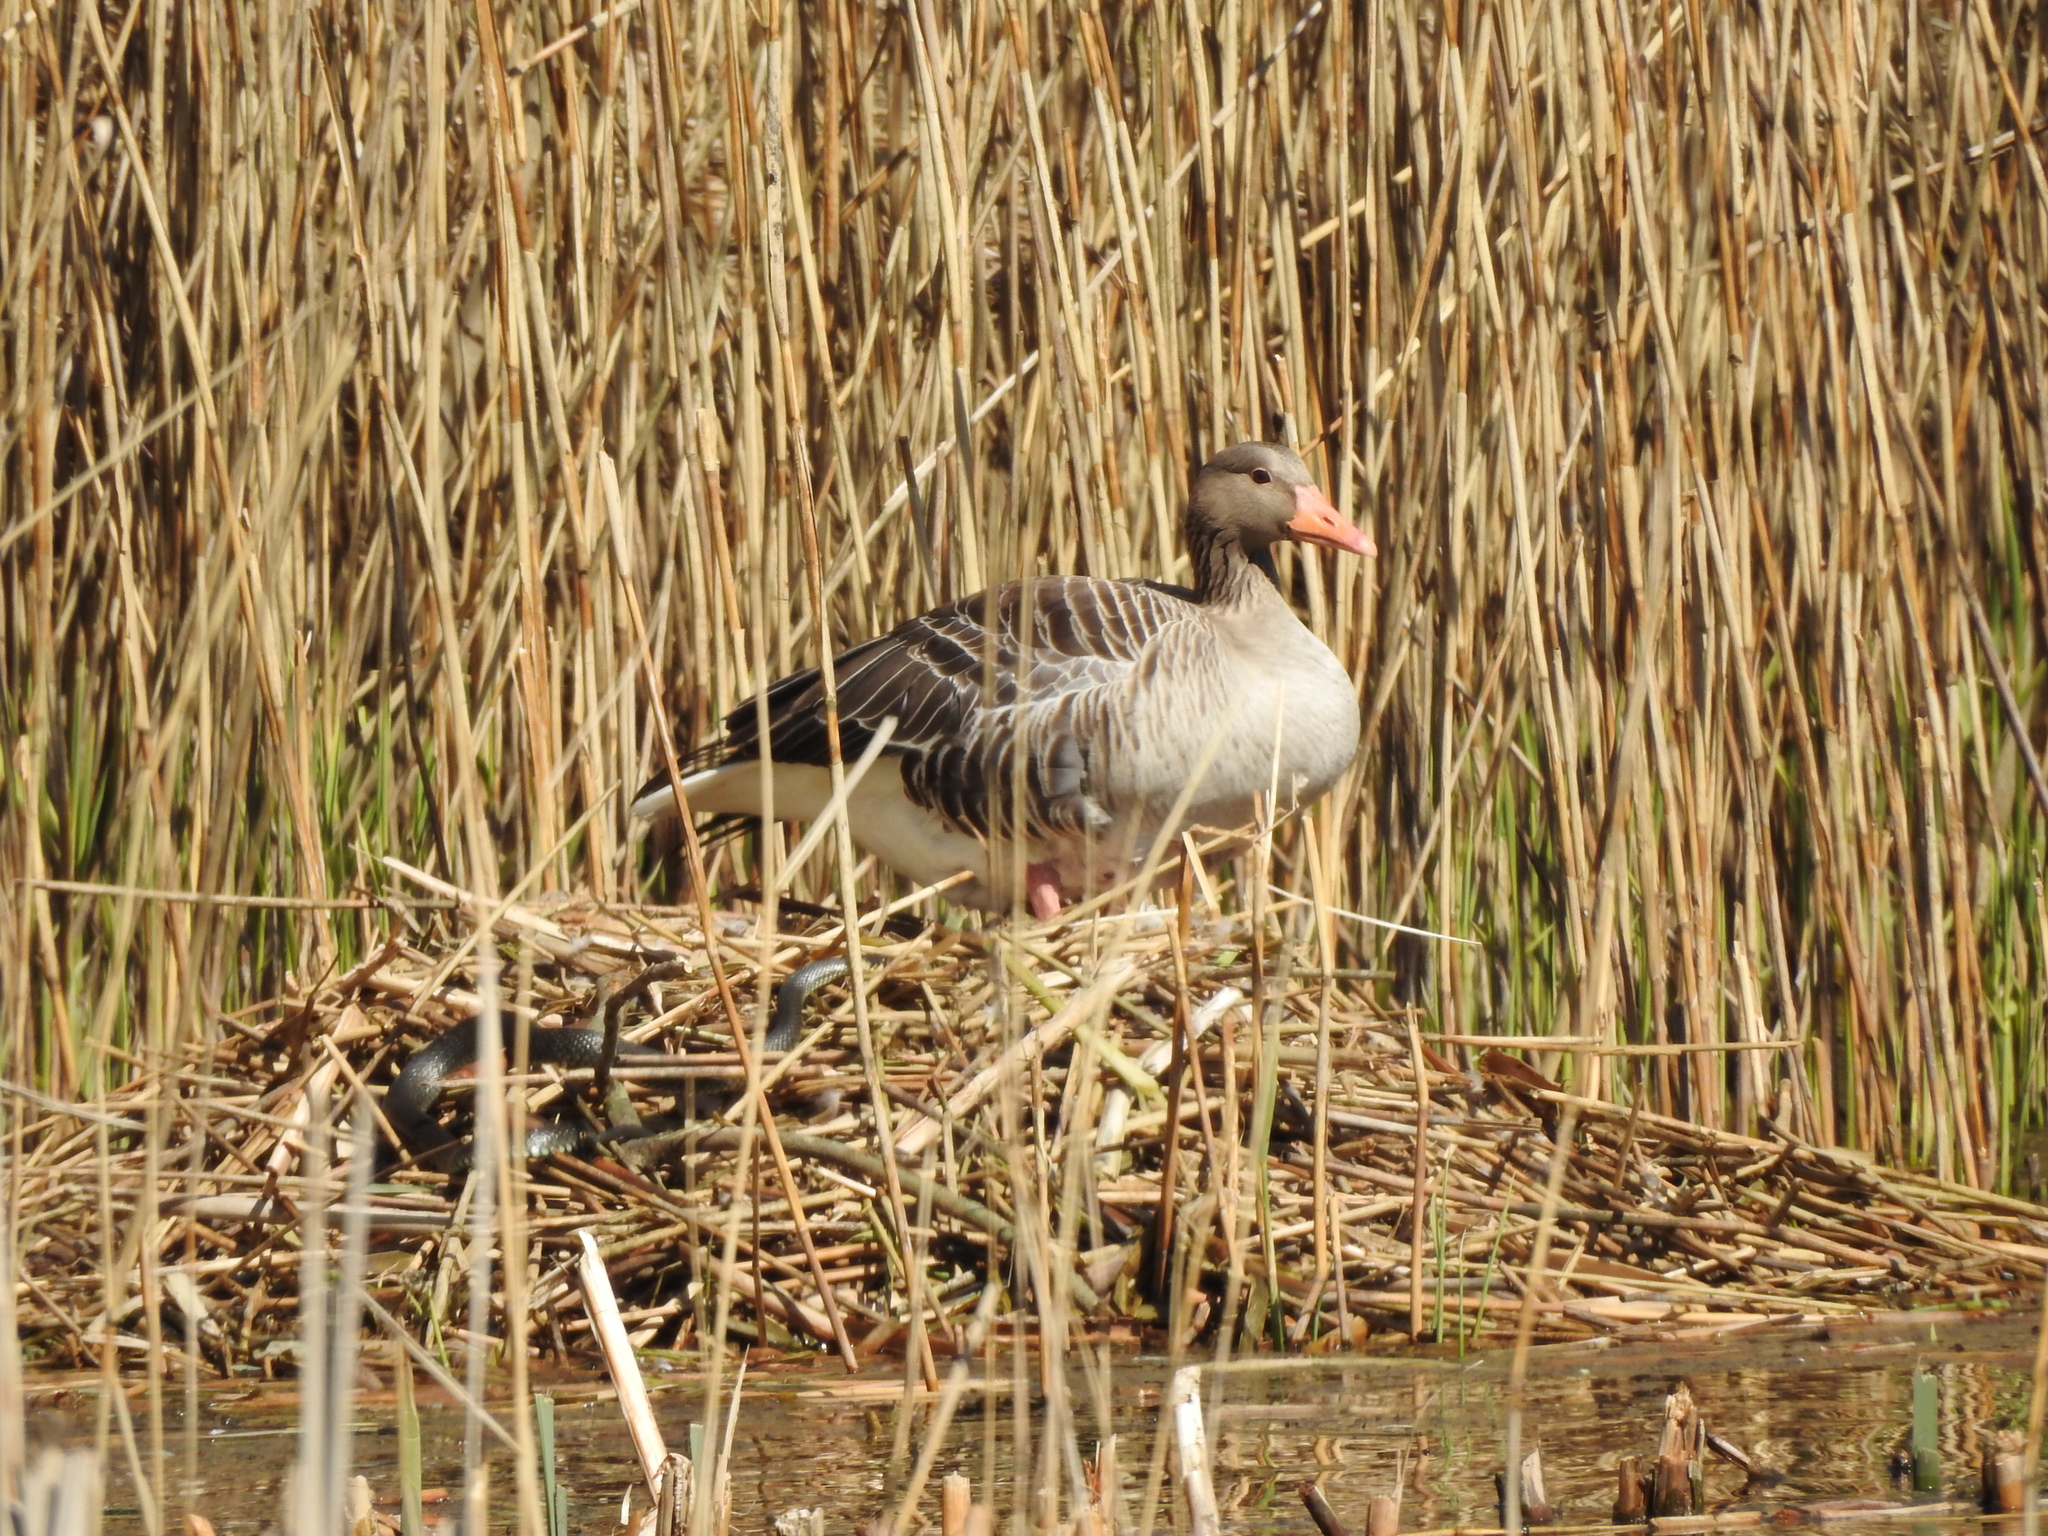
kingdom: Animalia
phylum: Chordata
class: Squamata
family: Colubridae
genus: Natrix
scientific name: Natrix natrix
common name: Grass snake
